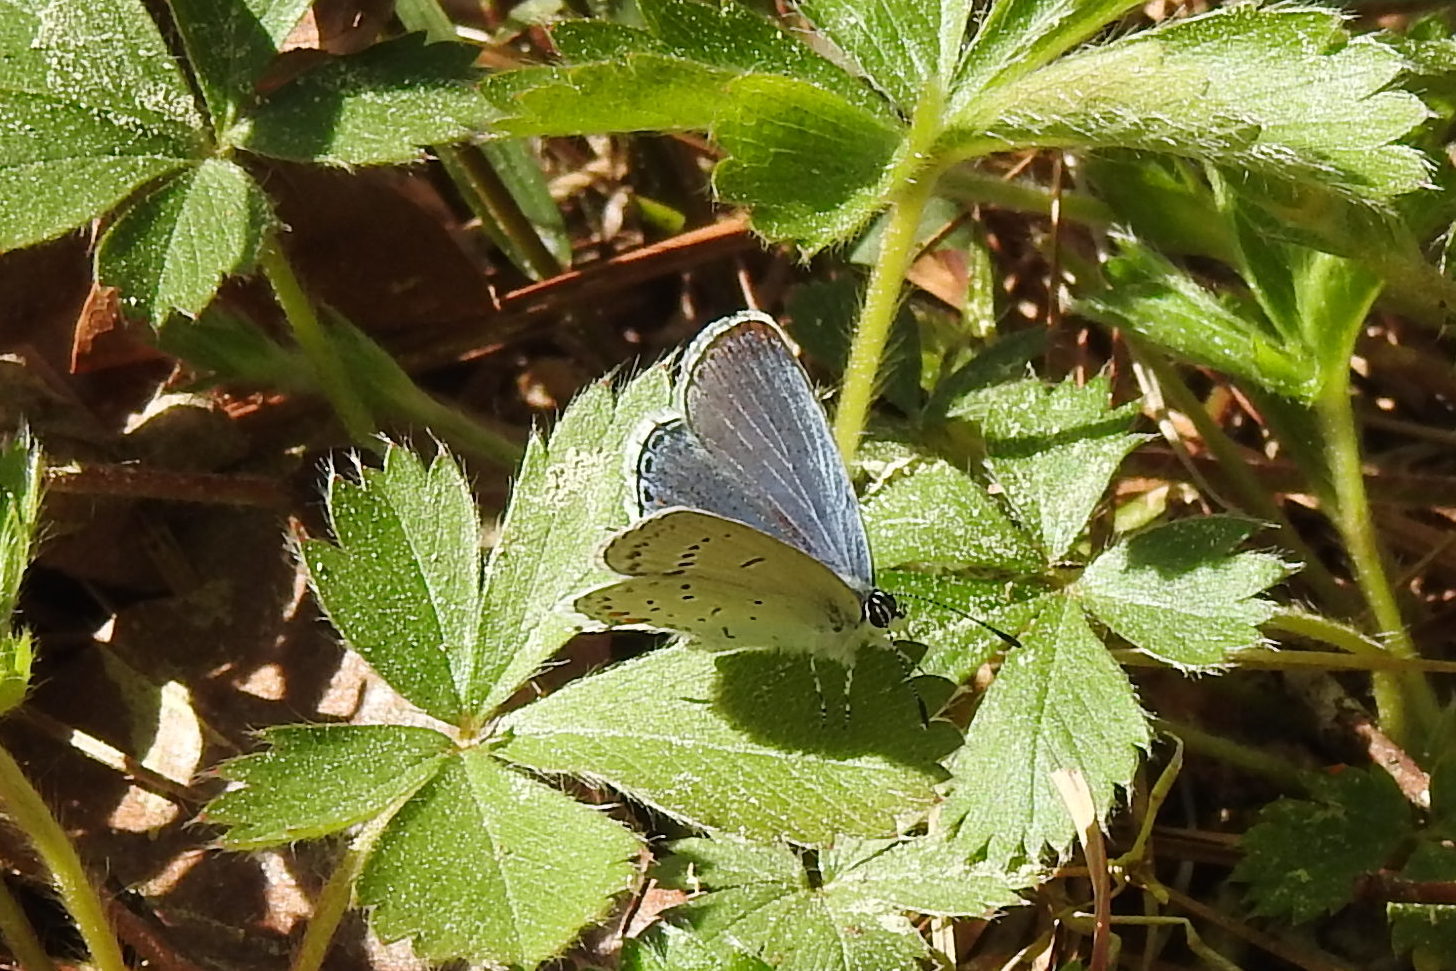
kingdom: Animalia
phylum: Arthropoda
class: Insecta
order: Lepidoptera
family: Lycaenidae
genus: Elkalyce
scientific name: Elkalyce comyntas
